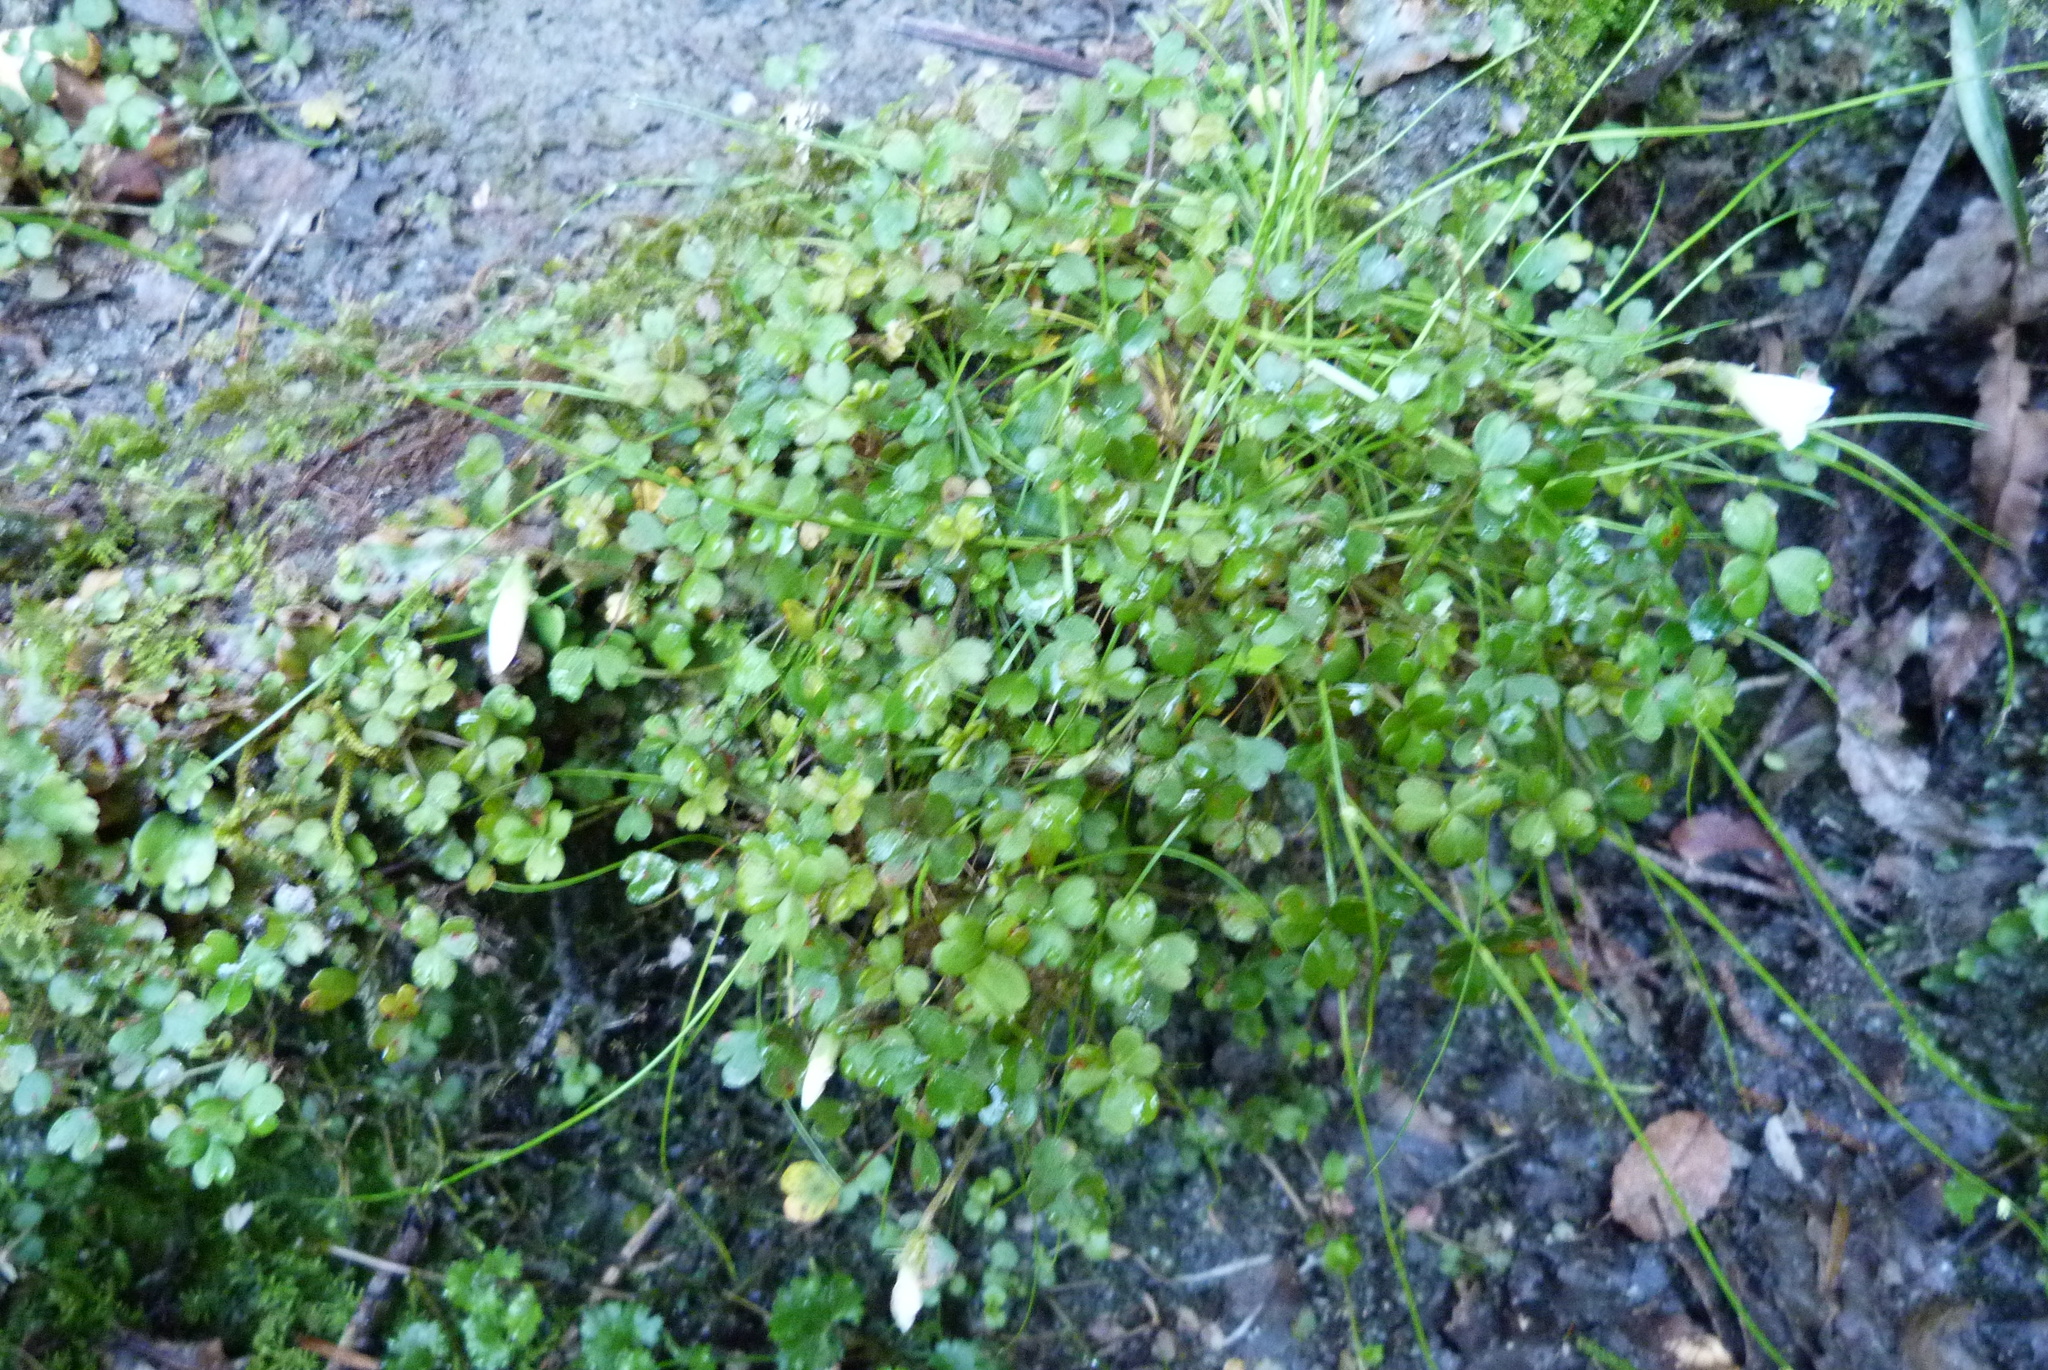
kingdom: Plantae
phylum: Tracheophyta
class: Magnoliopsida
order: Oxalidales
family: Oxalidaceae
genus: Oxalis
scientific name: Oxalis magellanica
